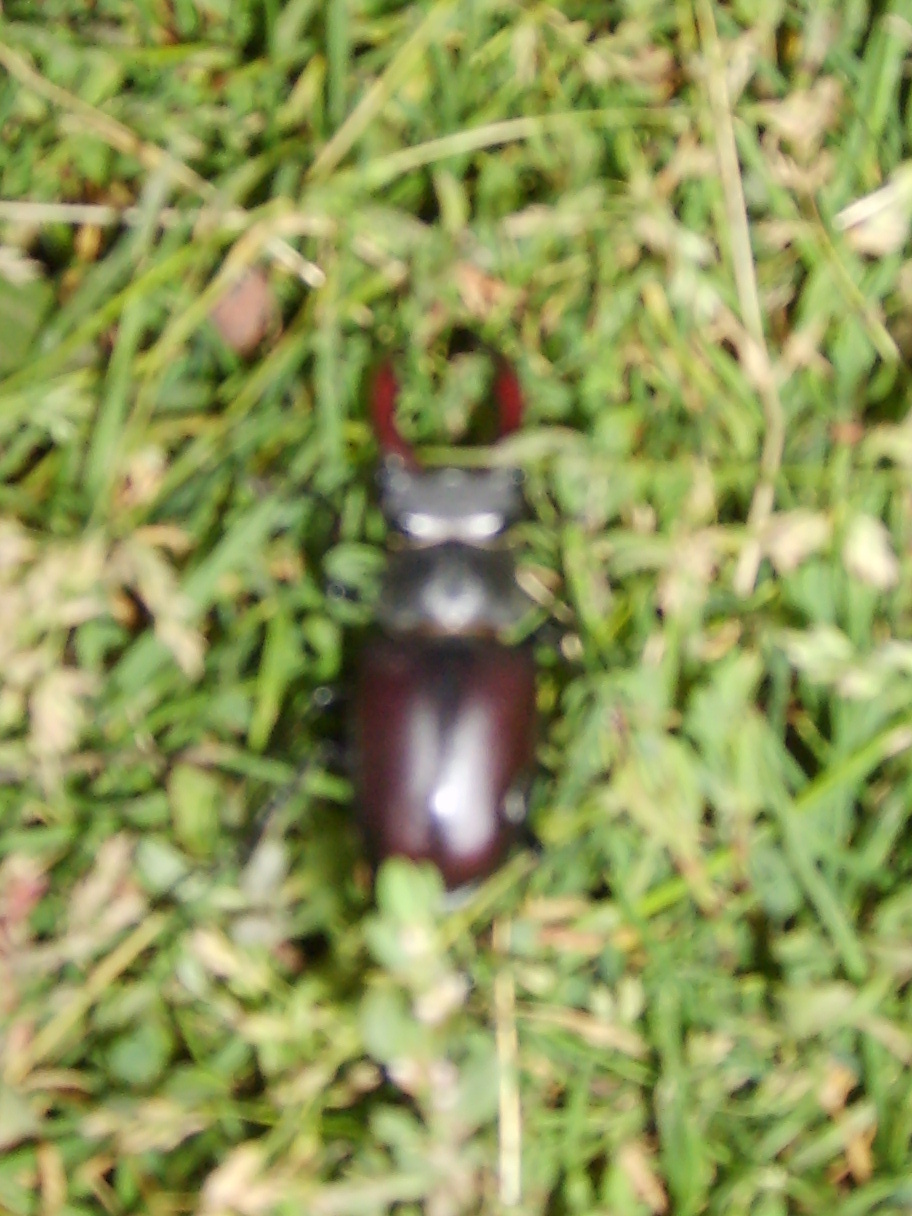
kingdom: Animalia
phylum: Arthropoda
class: Insecta
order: Coleoptera
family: Lucanidae
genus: Lucanus
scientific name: Lucanus cervus
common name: Stag beetle
